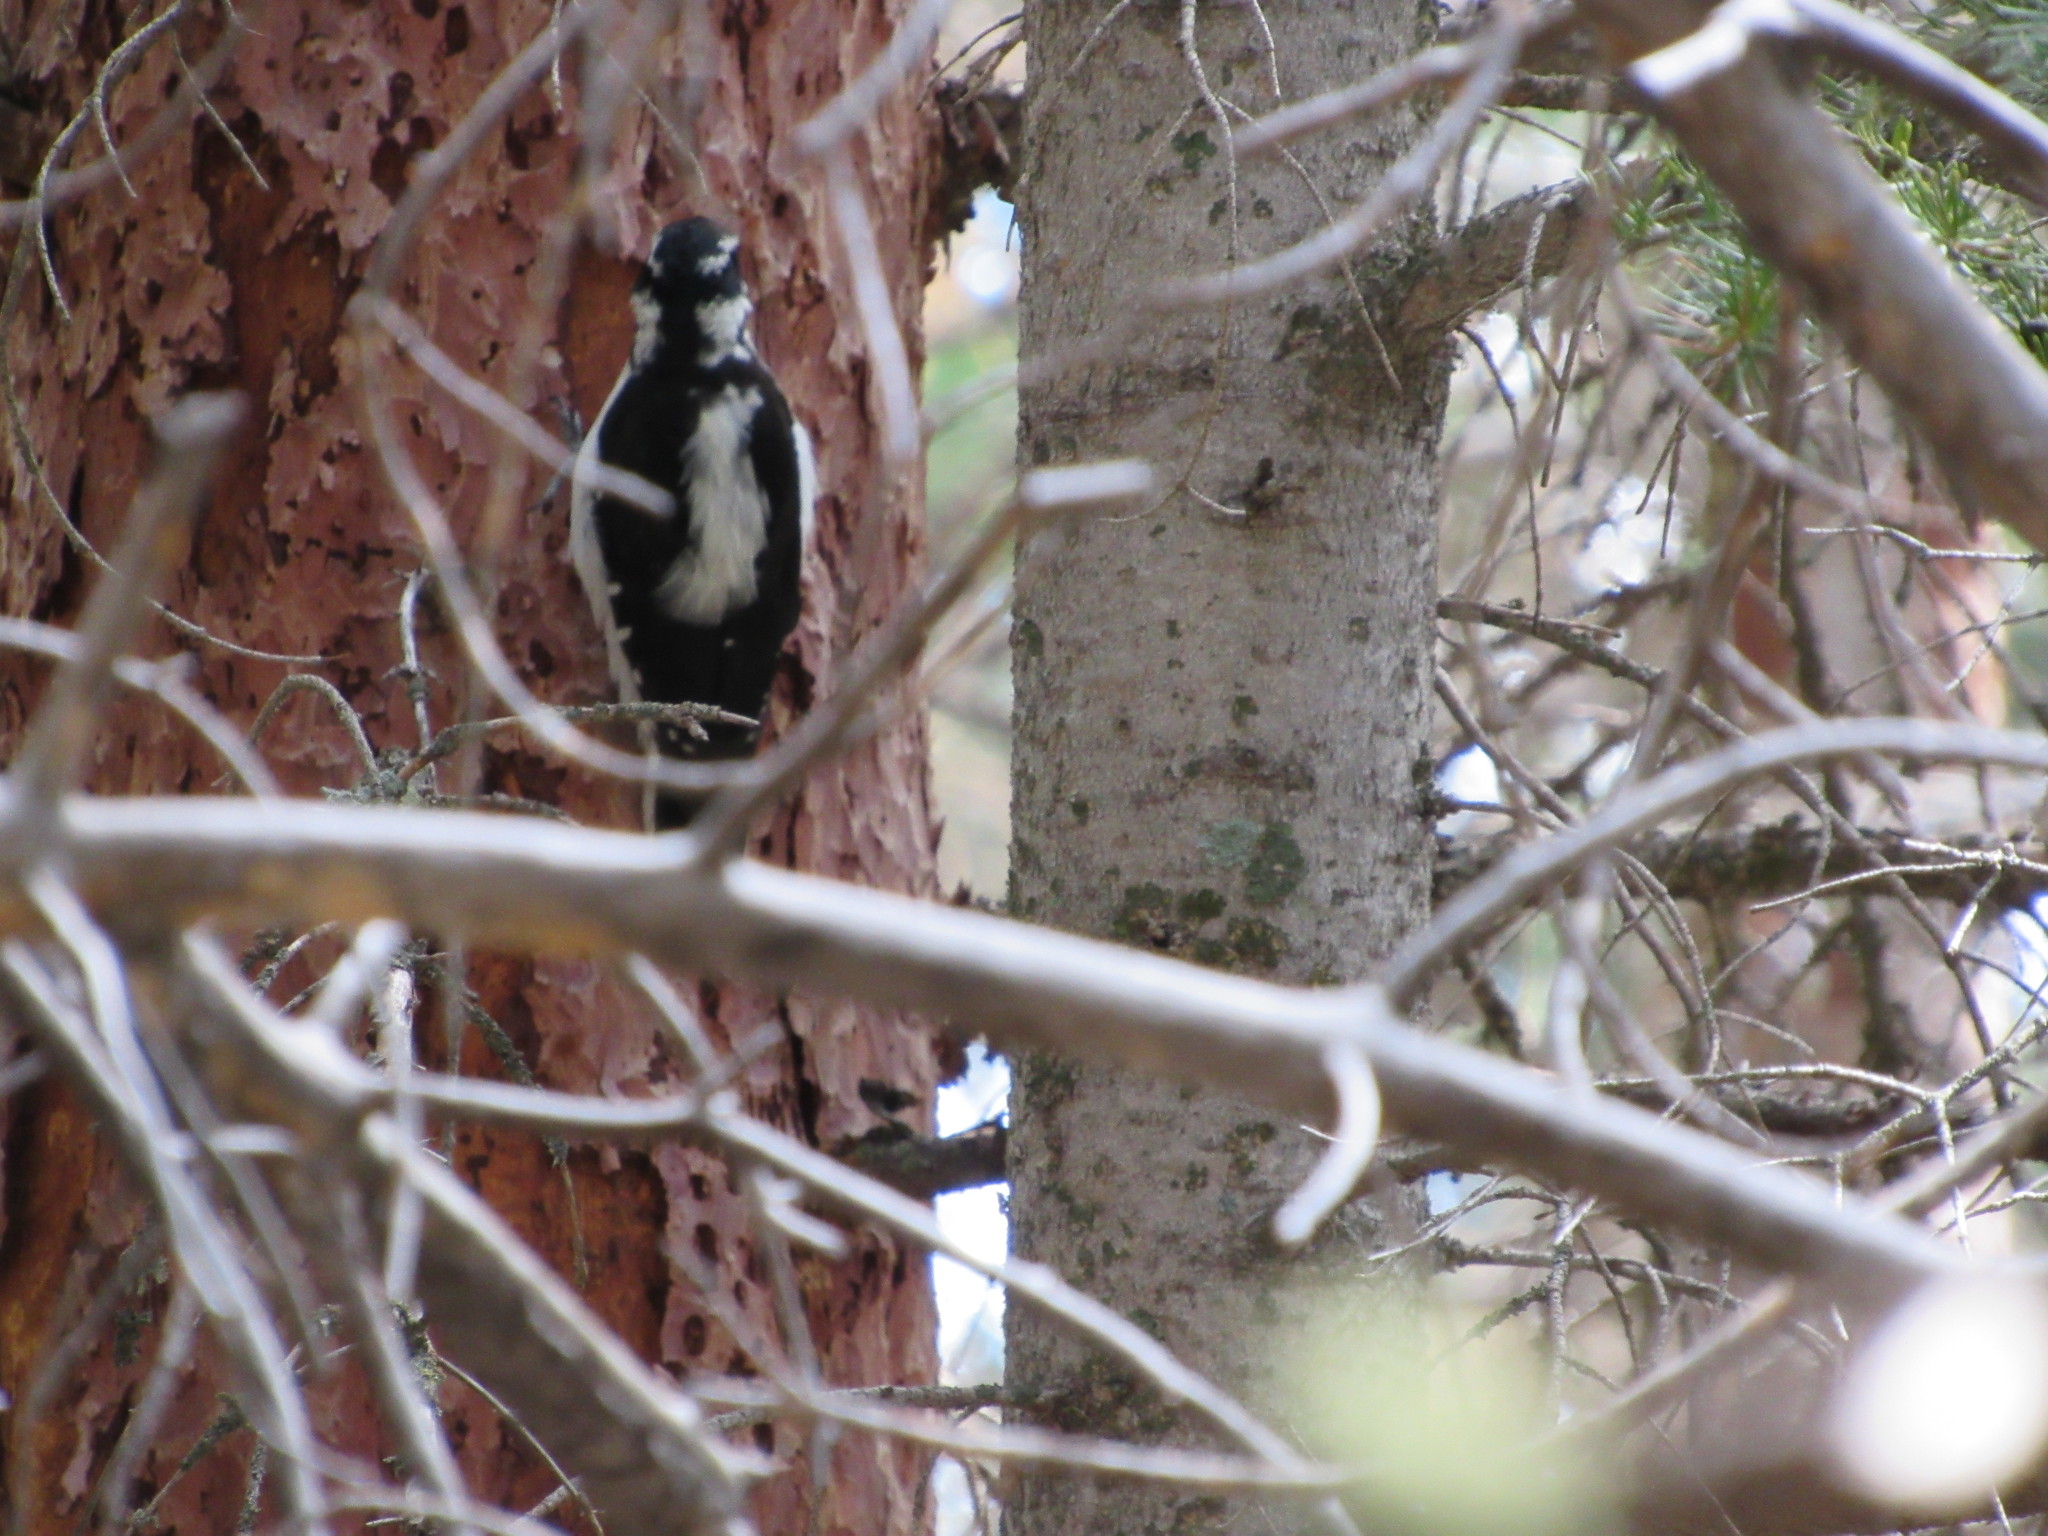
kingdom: Animalia
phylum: Chordata
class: Aves
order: Piciformes
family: Picidae
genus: Leuconotopicus
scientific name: Leuconotopicus villosus
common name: Hairy woodpecker
